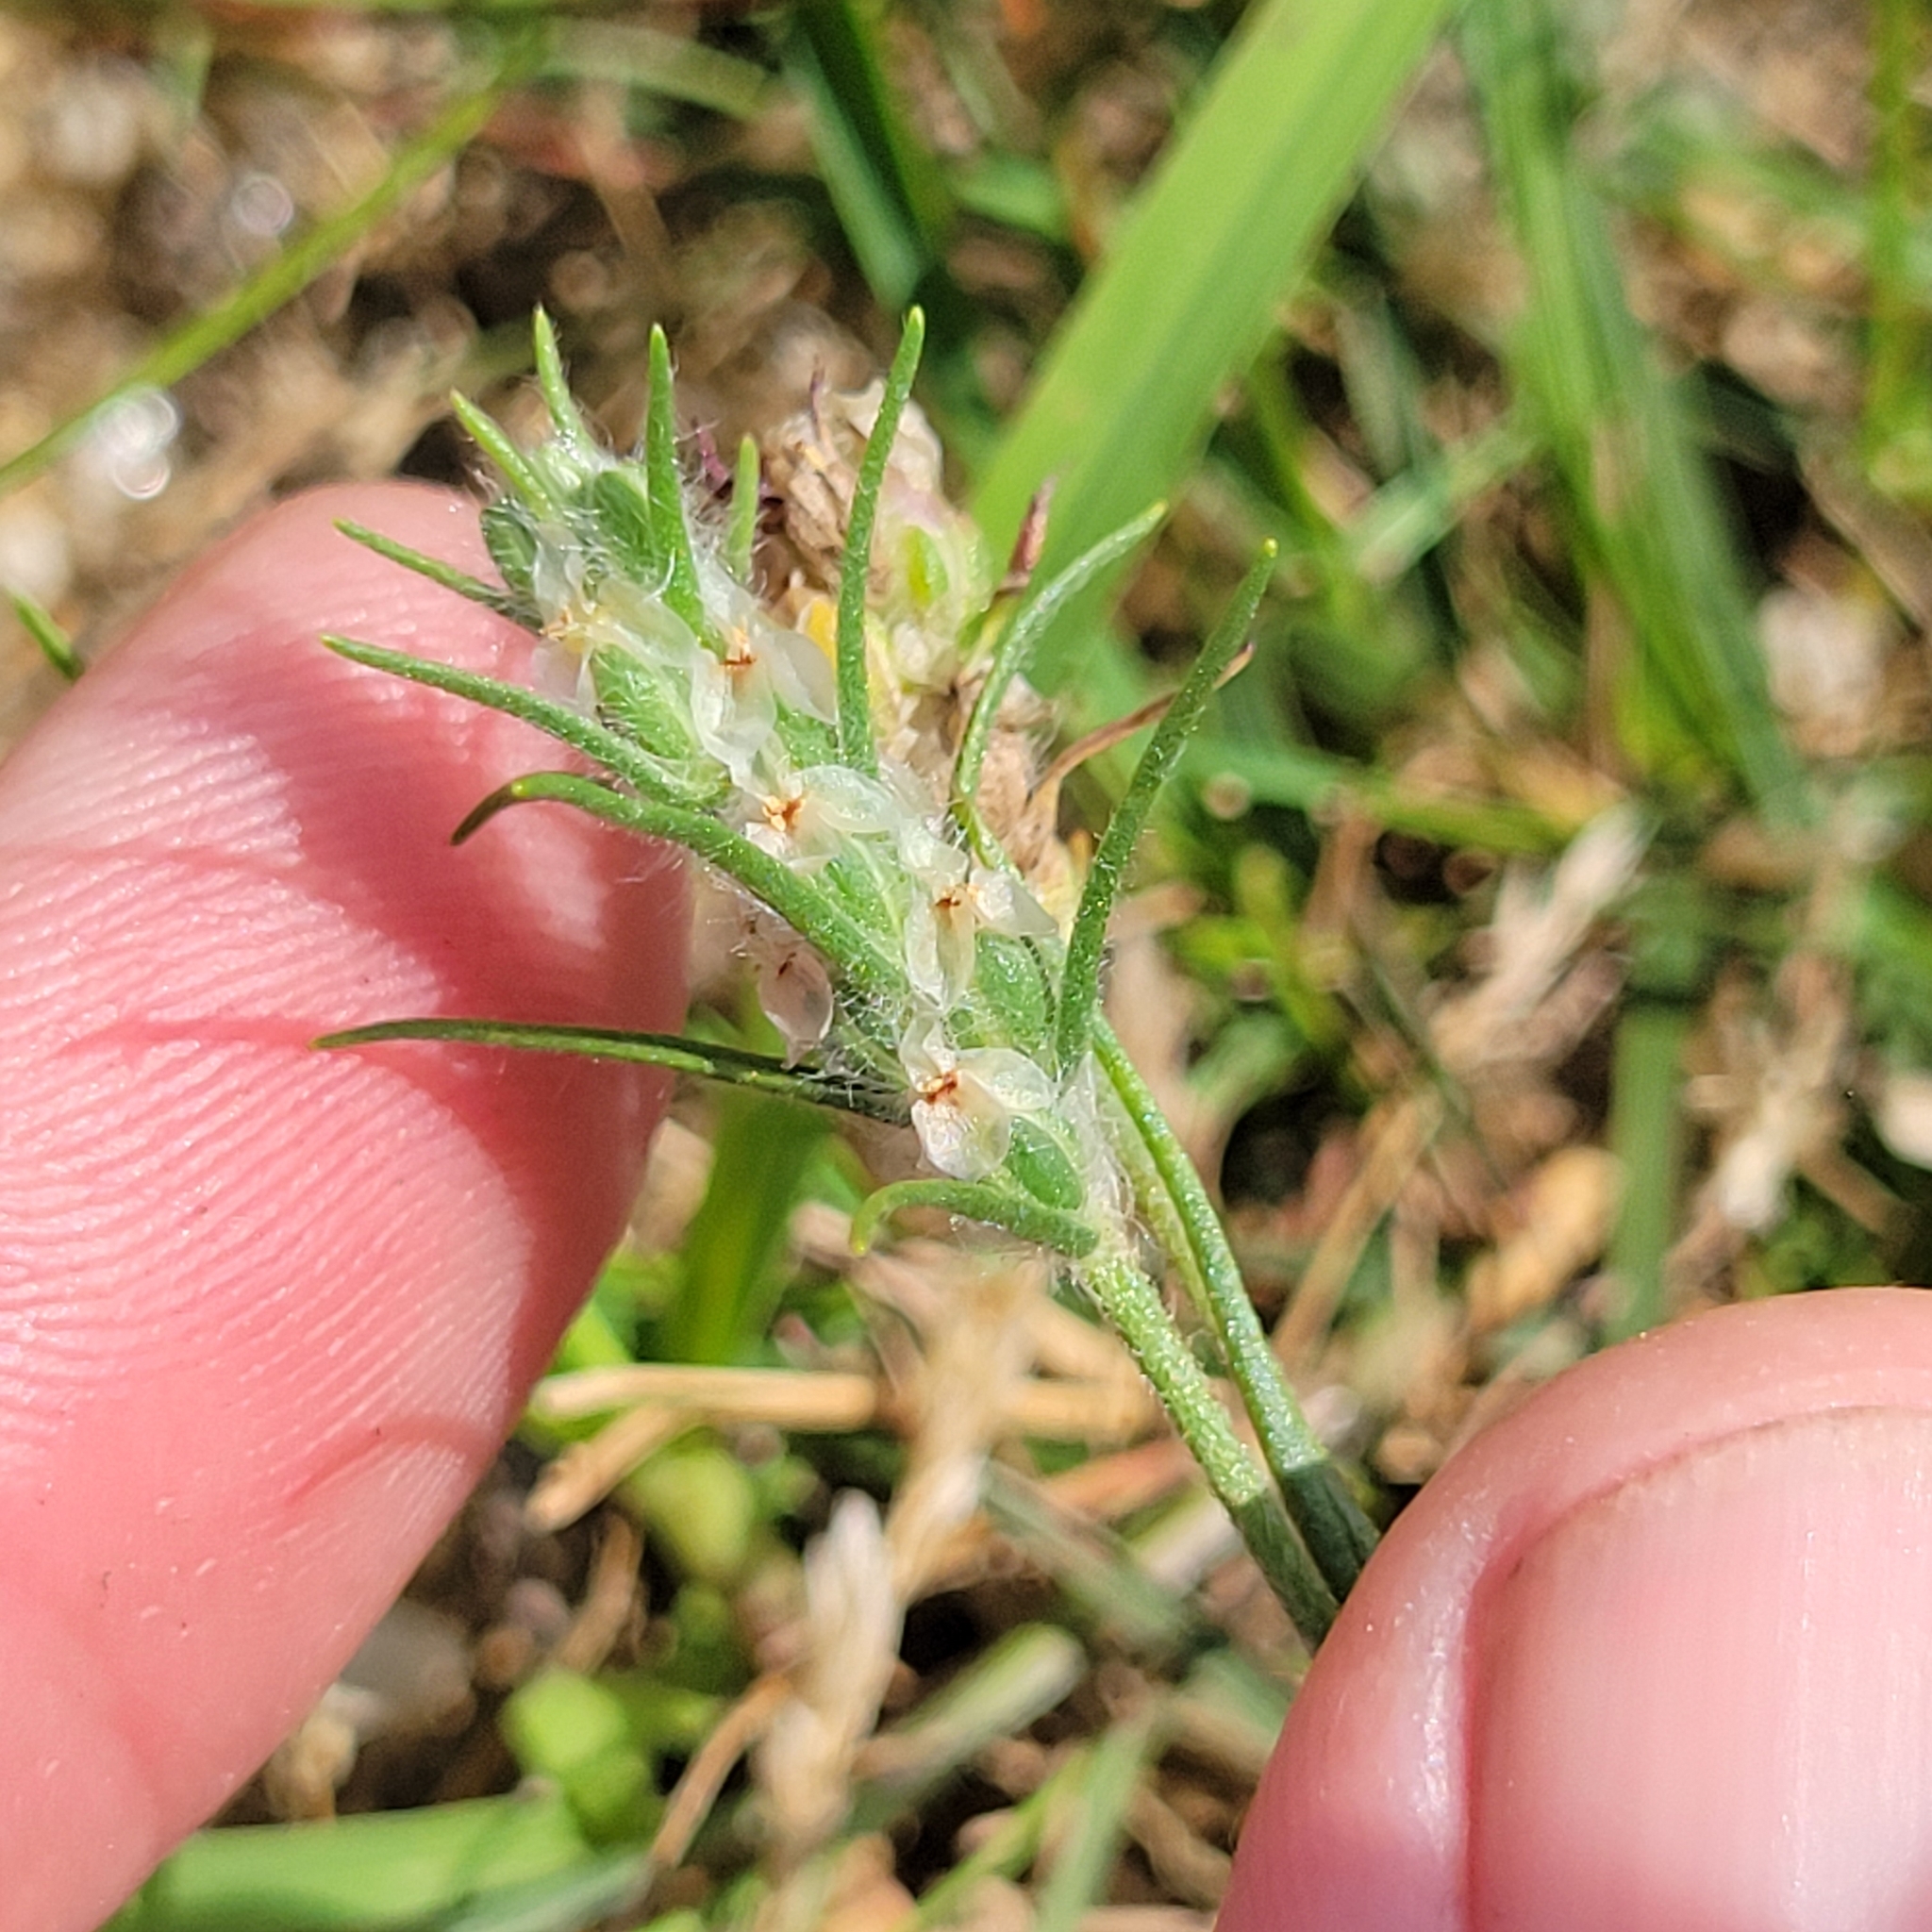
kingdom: Plantae
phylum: Tracheophyta
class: Magnoliopsida
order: Lamiales
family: Plantaginaceae
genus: Plantago
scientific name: Plantago aristata
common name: Bracted plantain
